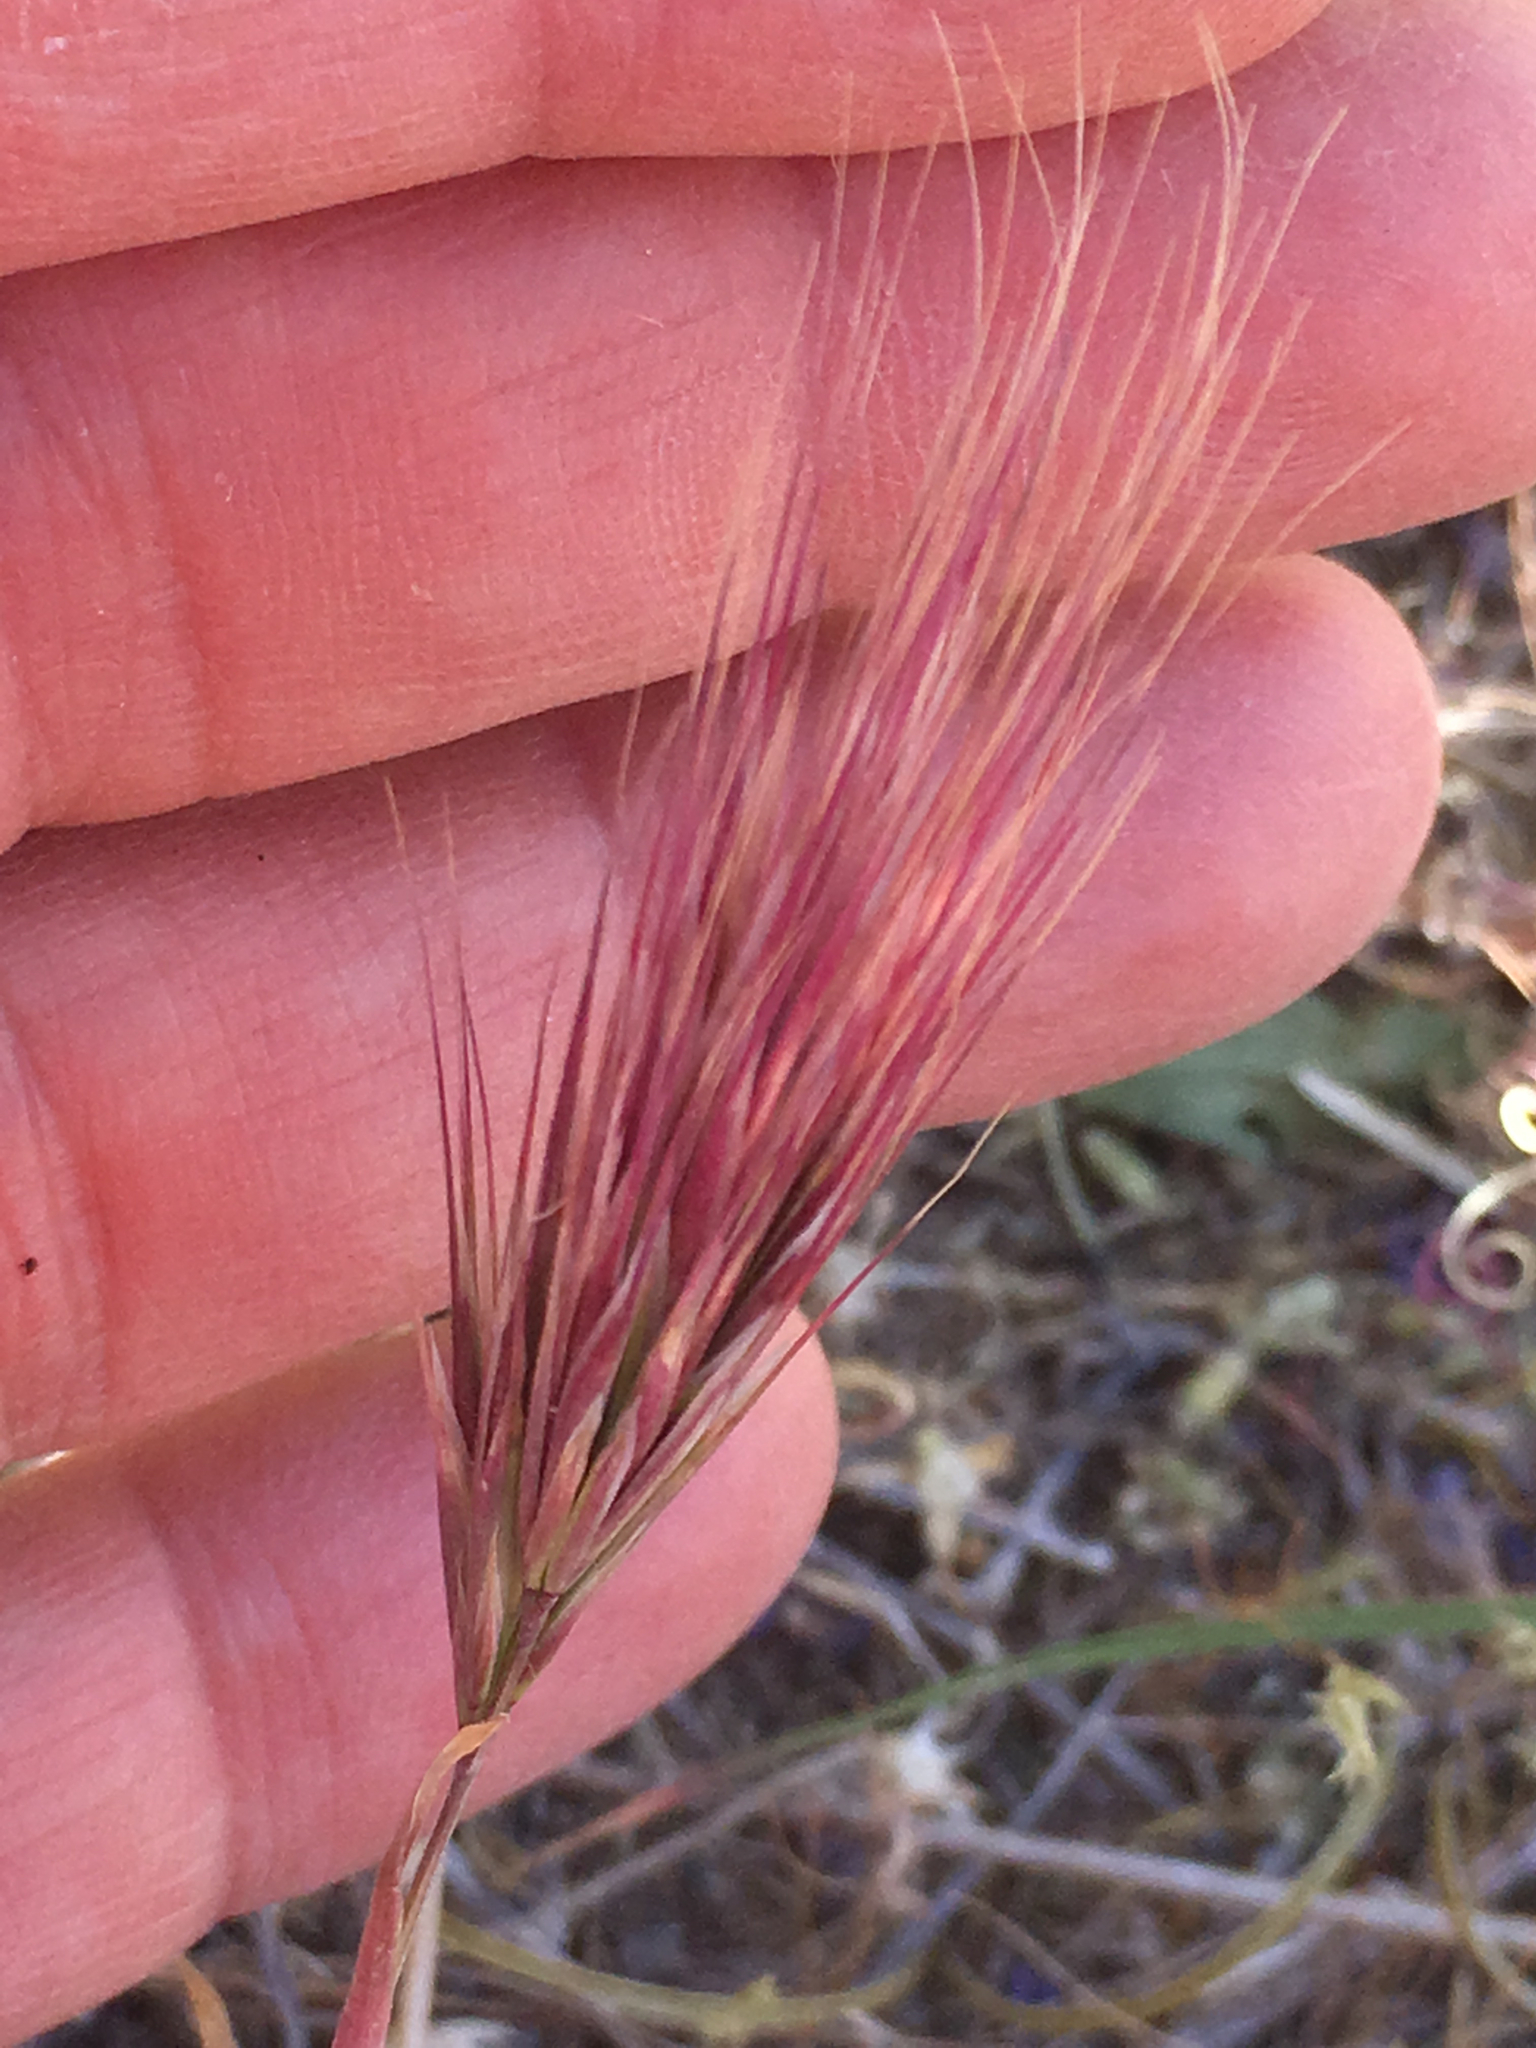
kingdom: Plantae
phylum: Tracheophyta
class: Liliopsida
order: Poales
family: Poaceae
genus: Bromus
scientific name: Bromus rubens
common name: Red brome
